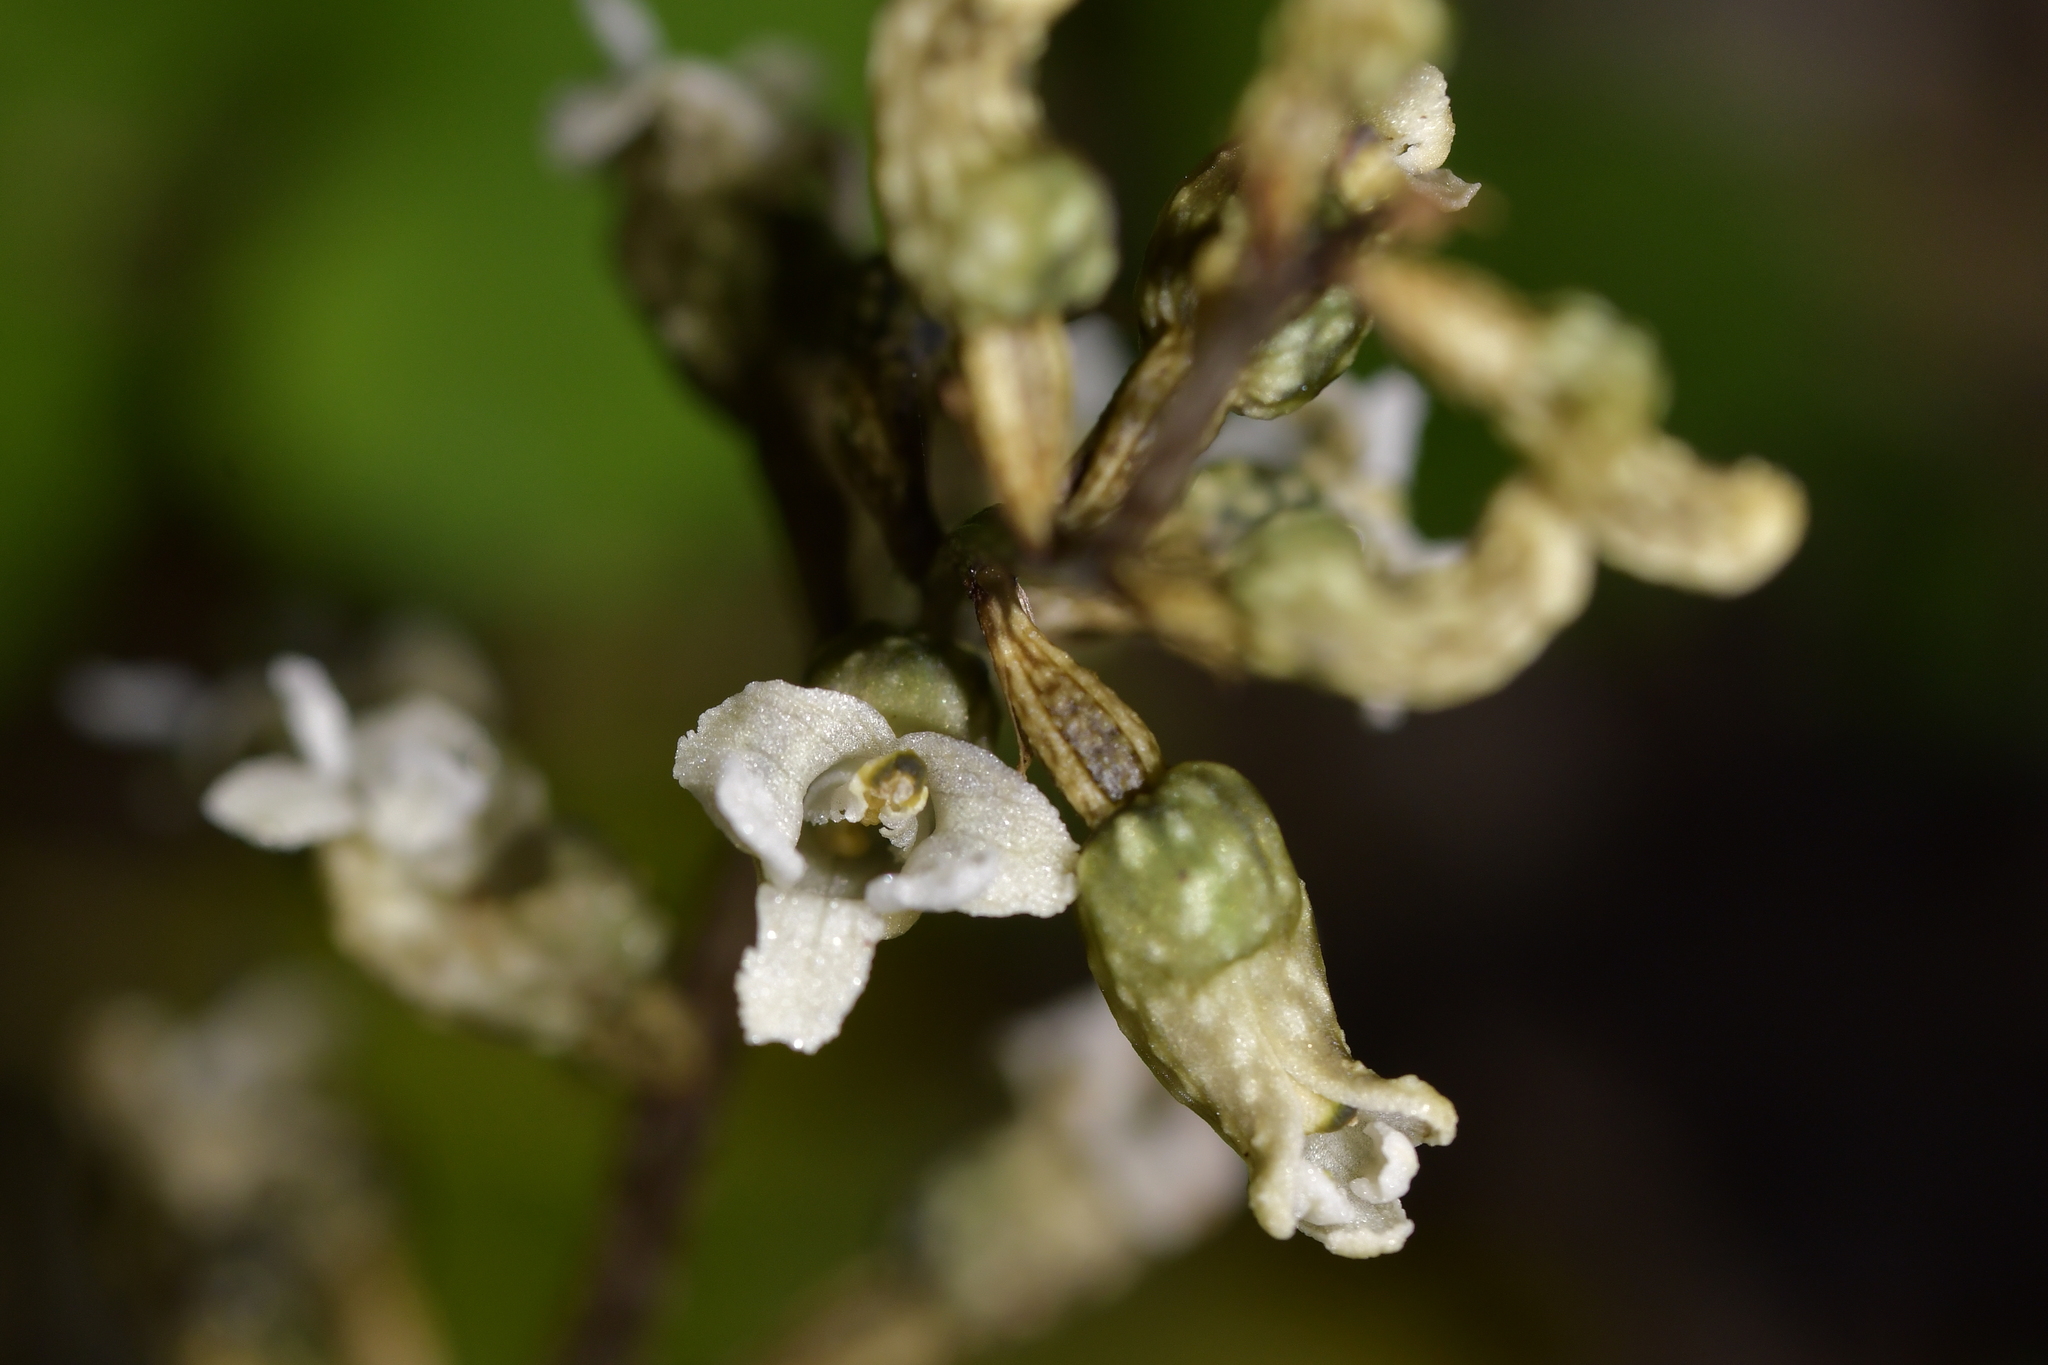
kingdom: Plantae
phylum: Tracheophyta
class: Liliopsida
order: Asparagales
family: Orchidaceae
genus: Gastrodia
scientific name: Gastrodia cunninghamii
